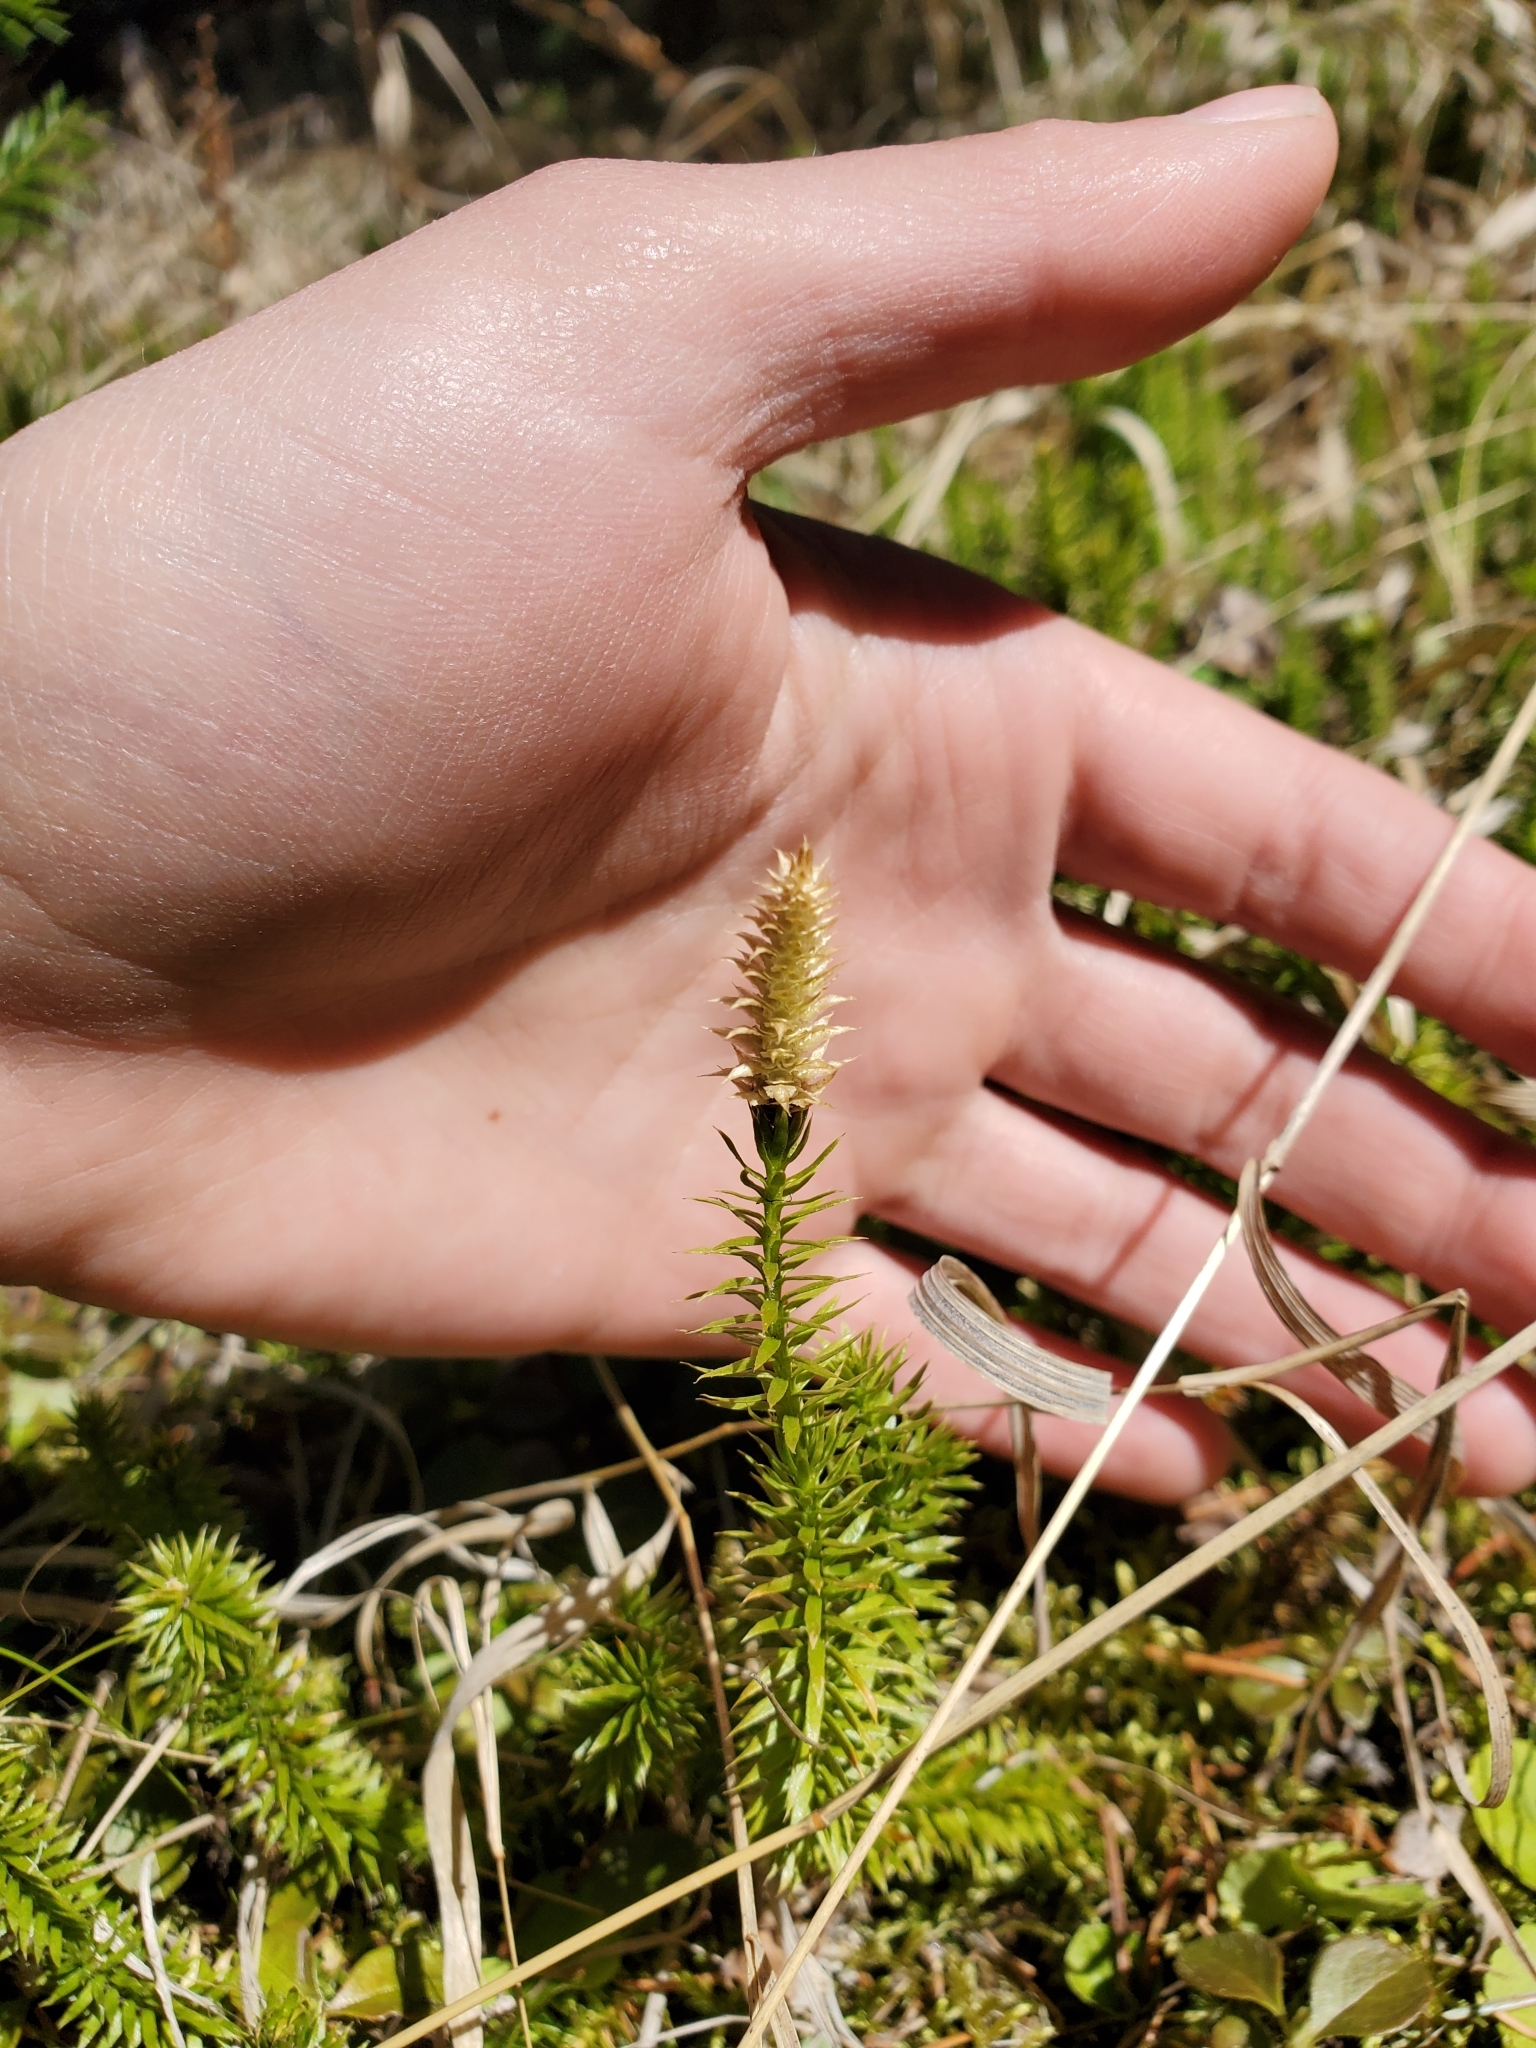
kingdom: Plantae
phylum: Tracheophyta
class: Lycopodiopsida
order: Lycopodiales
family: Lycopodiaceae
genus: Spinulum
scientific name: Spinulum annotinum
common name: Interrupted club-moss
